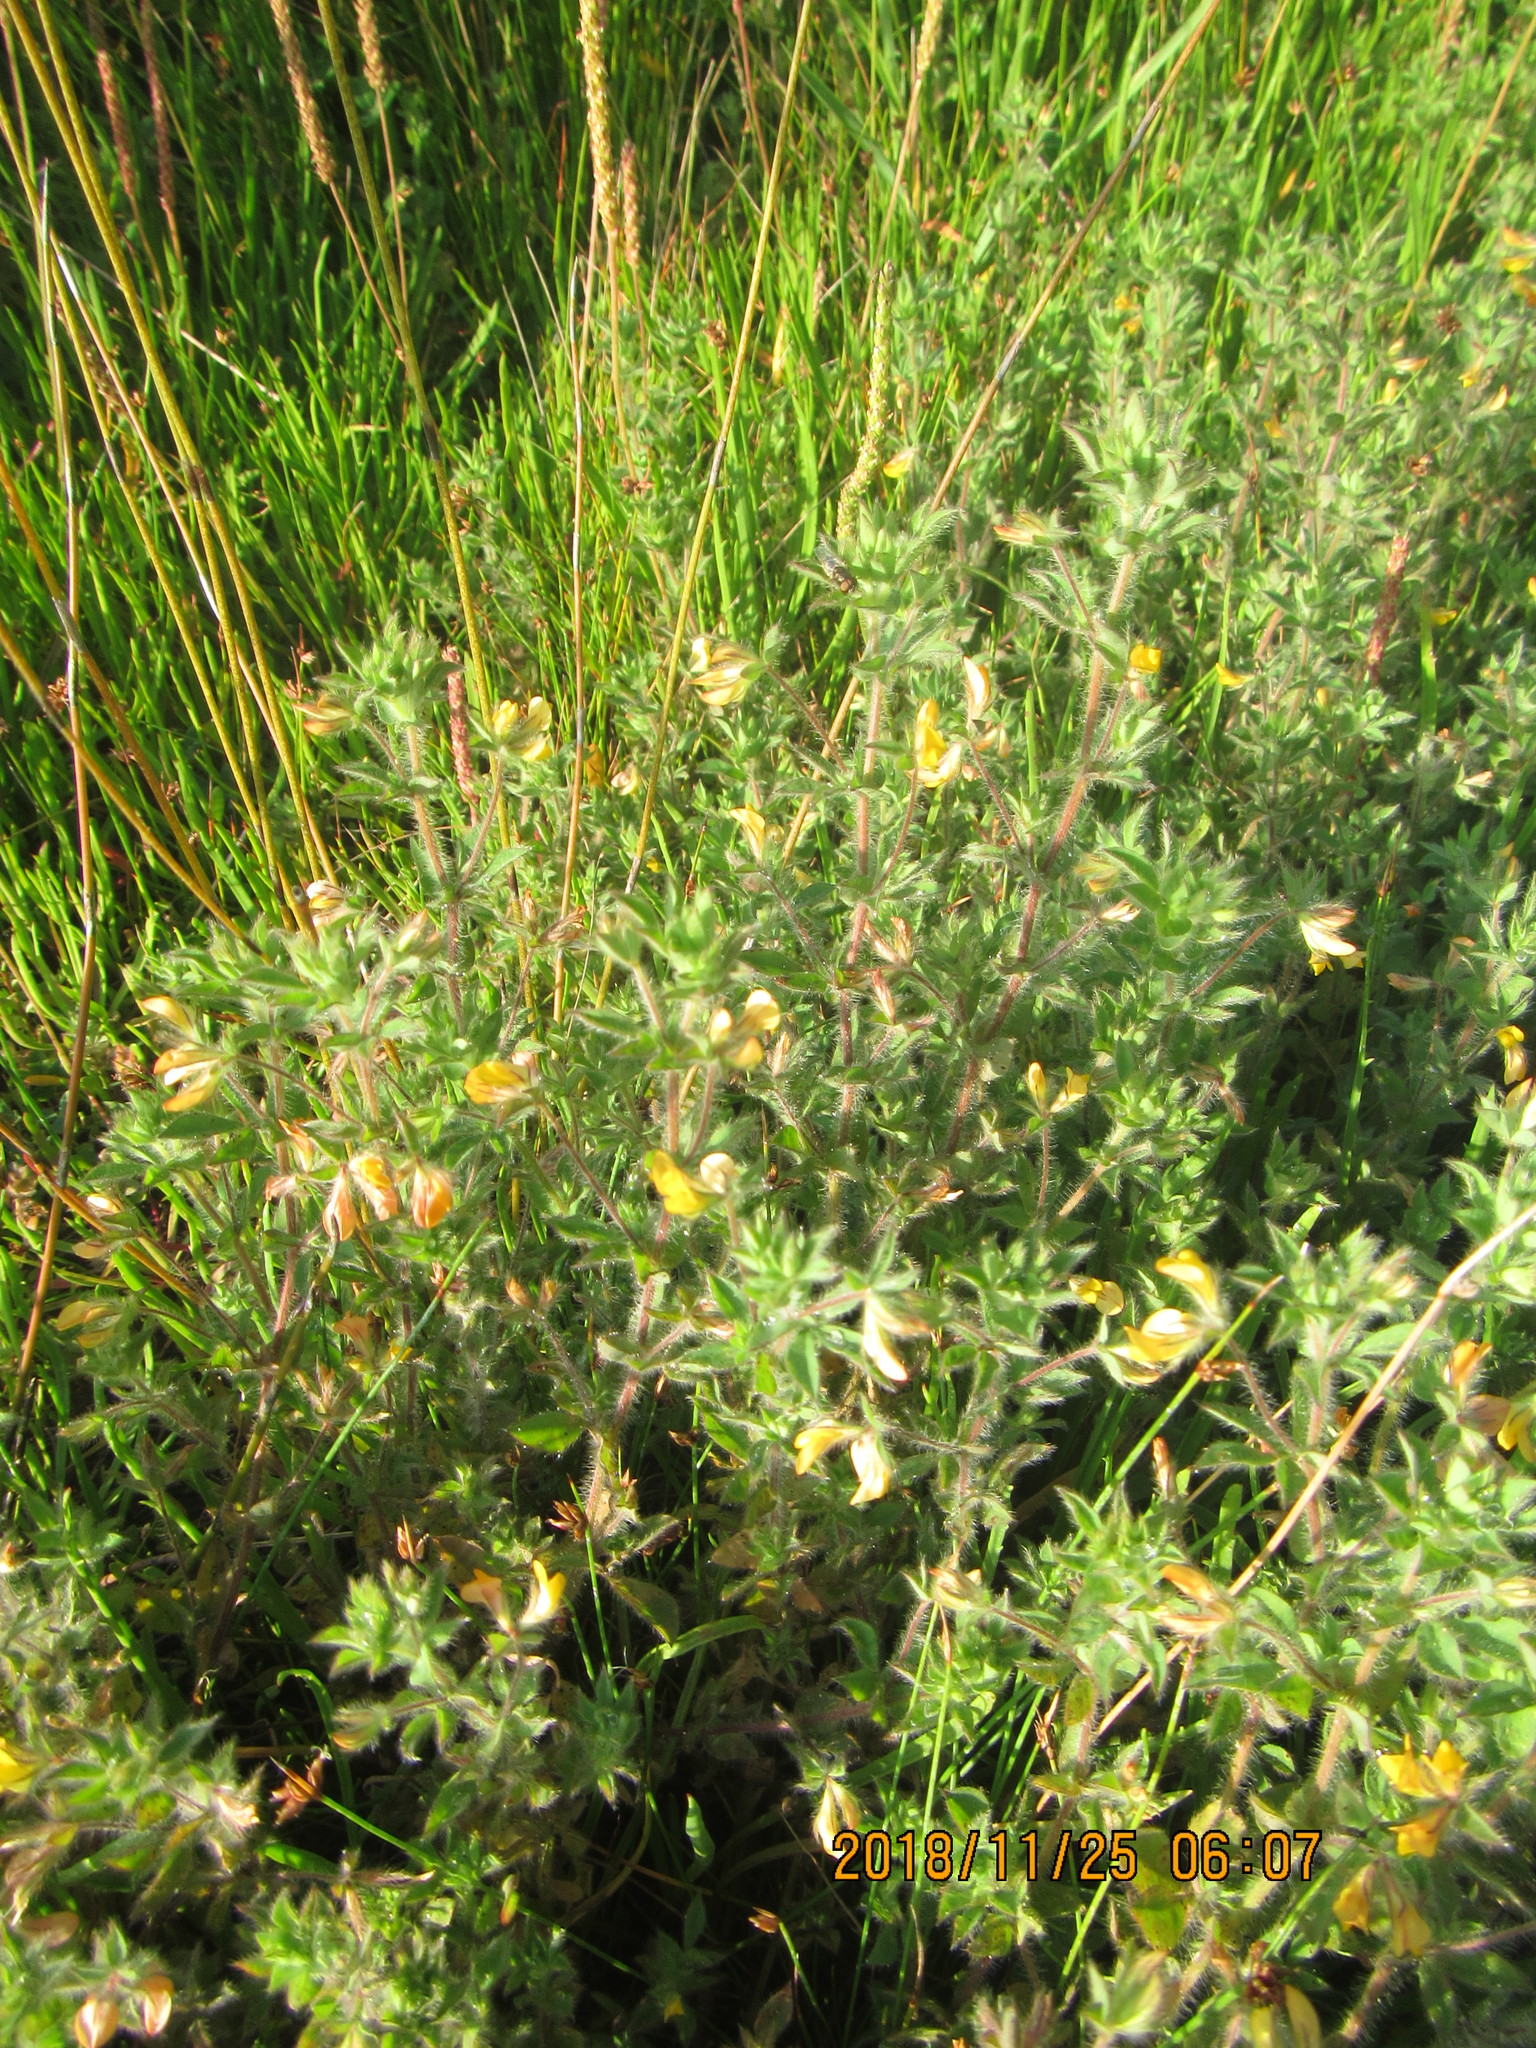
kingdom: Plantae
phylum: Tracheophyta
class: Magnoliopsida
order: Fabales
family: Fabaceae
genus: Lotus
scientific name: Lotus subbiflorus
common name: Hairy bird's-foot trefoil
